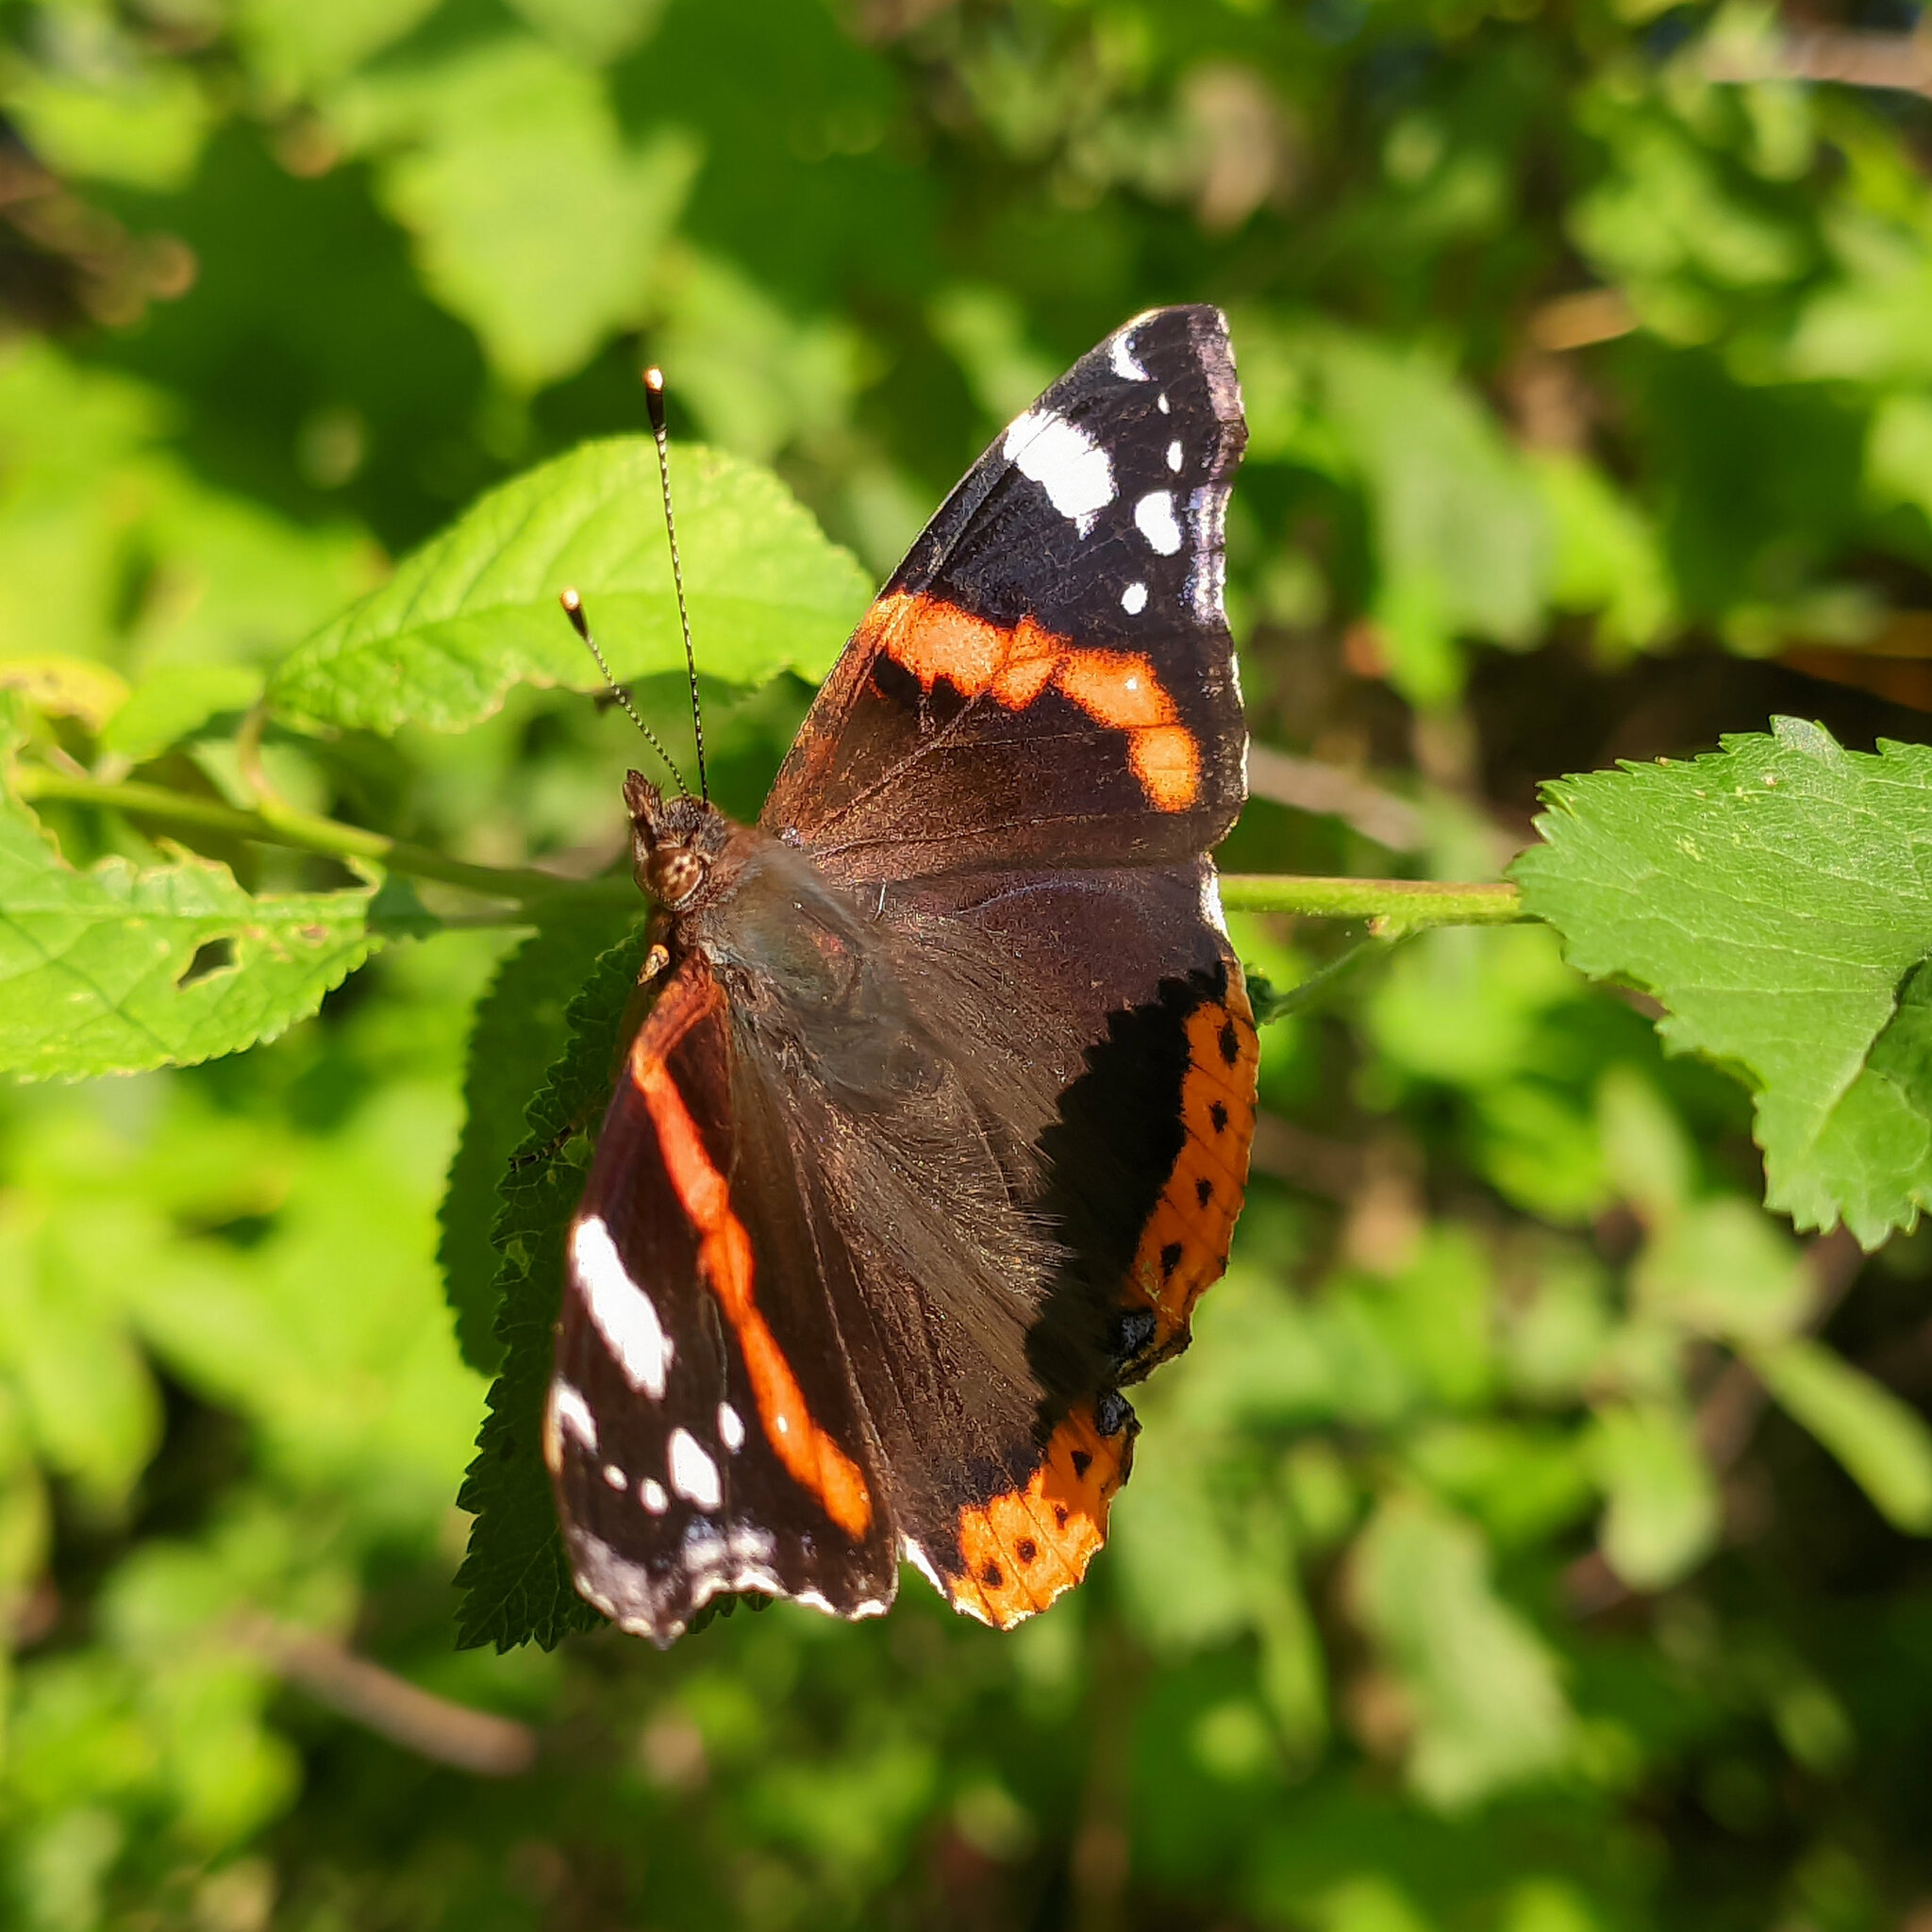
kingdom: Animalia
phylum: Arthropoda
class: Insecta
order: Lepidoptera
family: Nymphalidae
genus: Vanessa
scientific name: Vanessa atalanta
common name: Red admiral
